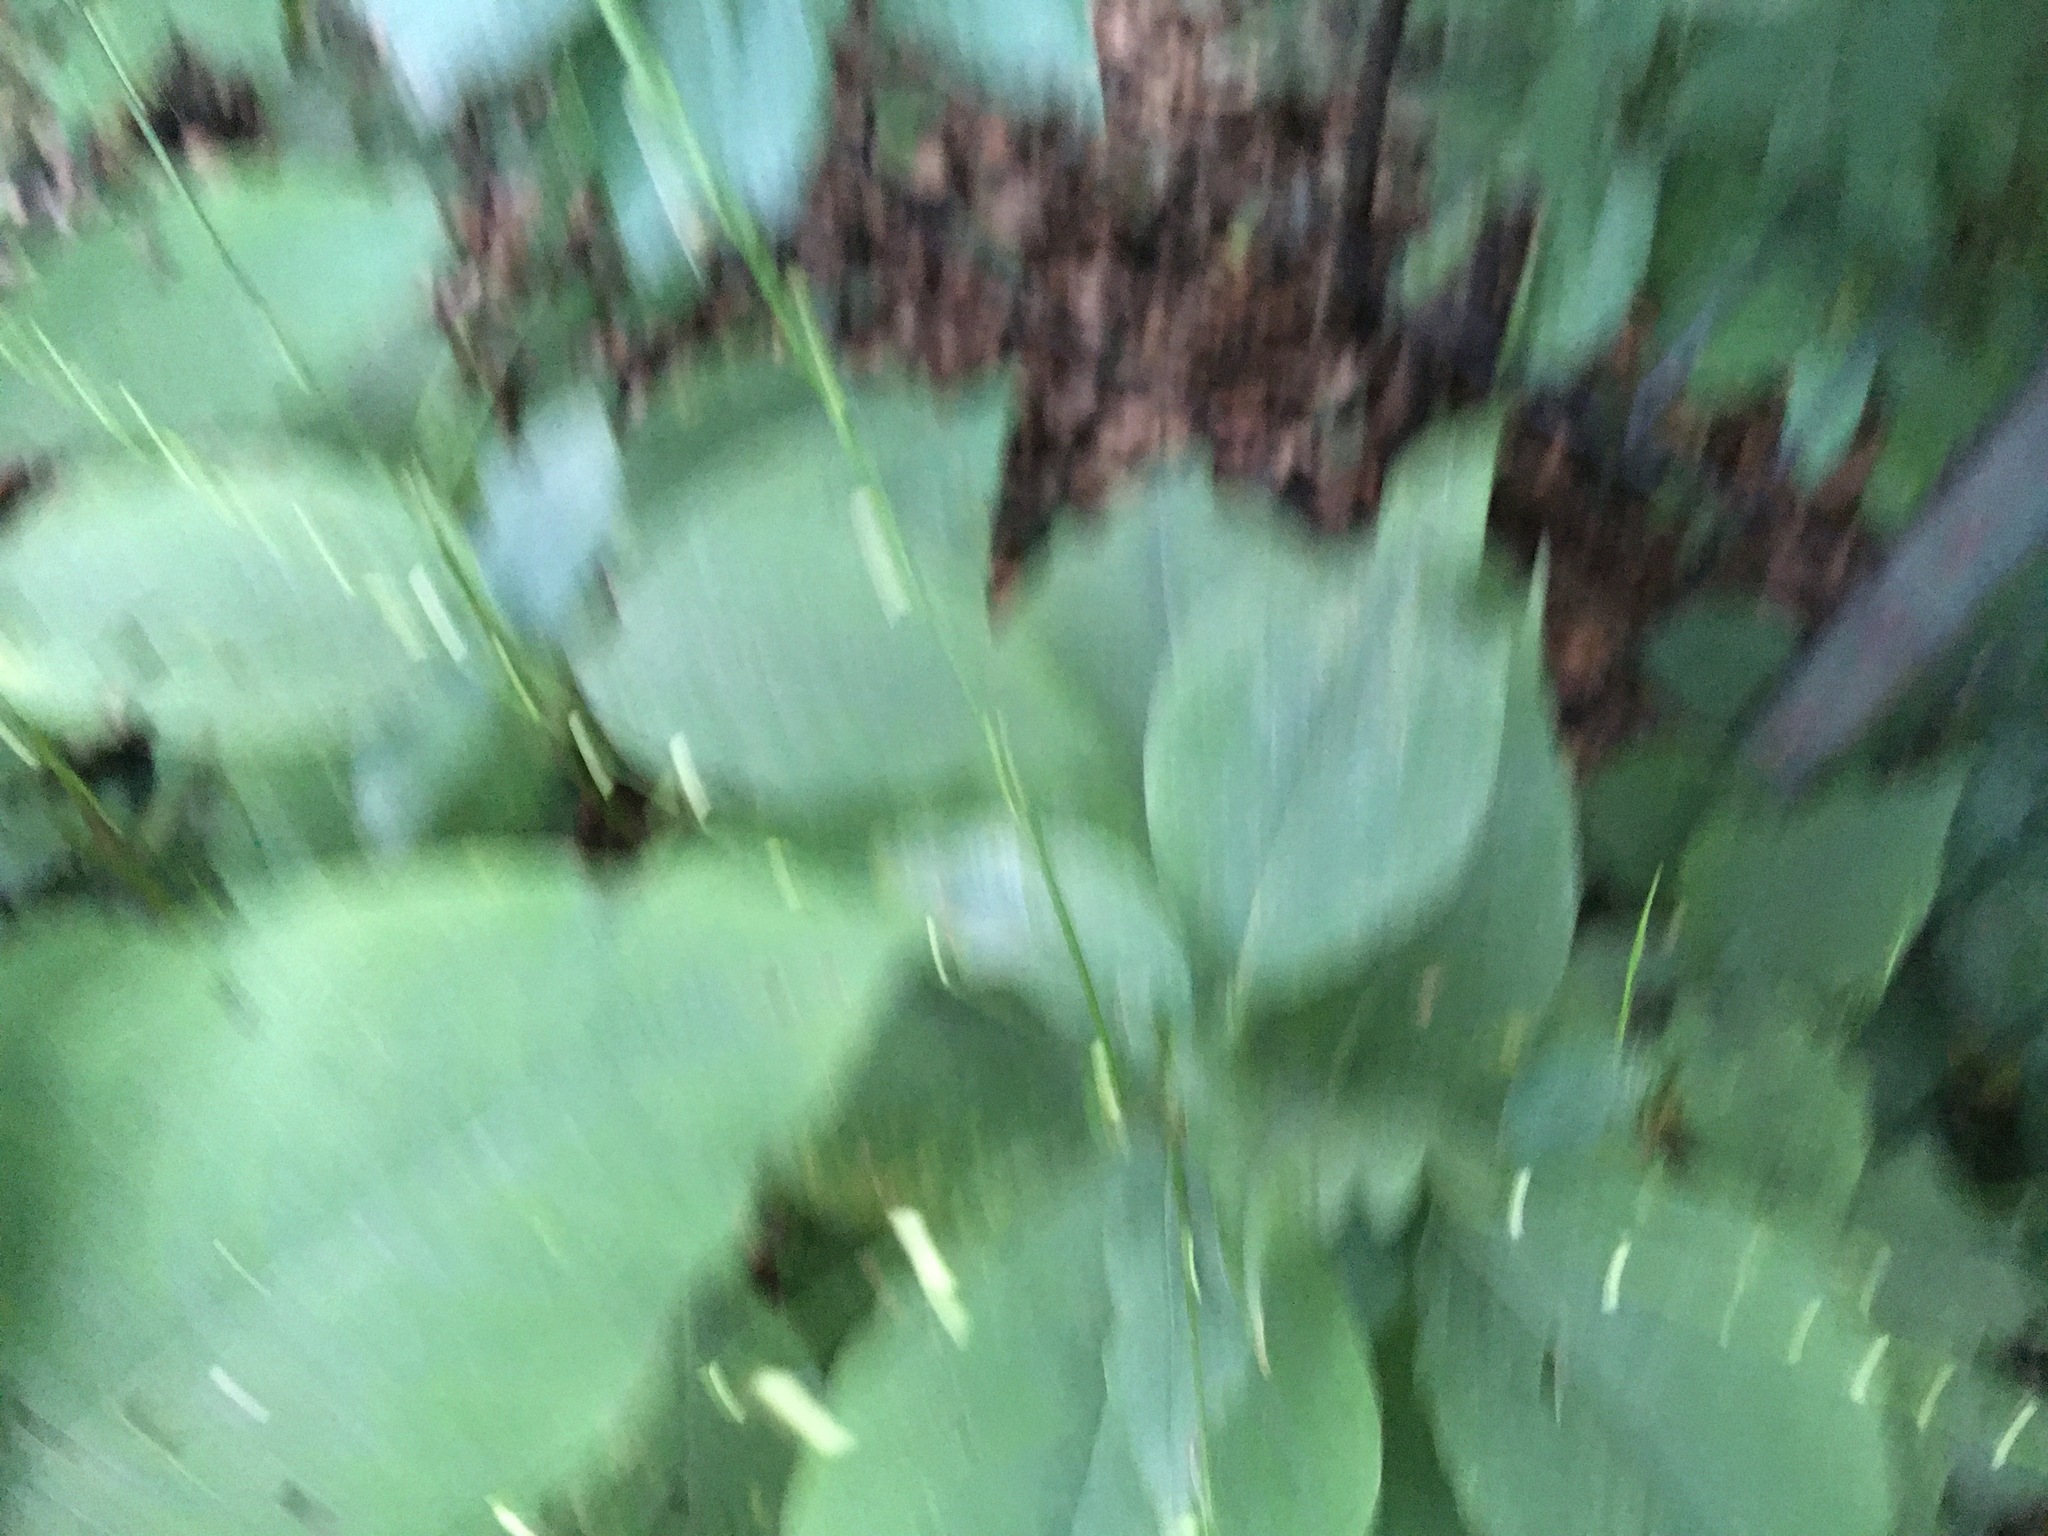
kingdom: Plantae
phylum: Tracheophyta
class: Magnoliopsida
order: Caryophyllales
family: Polygonaceae
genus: Persicaria
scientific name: Persicaria virginiana
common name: Jumpseed
